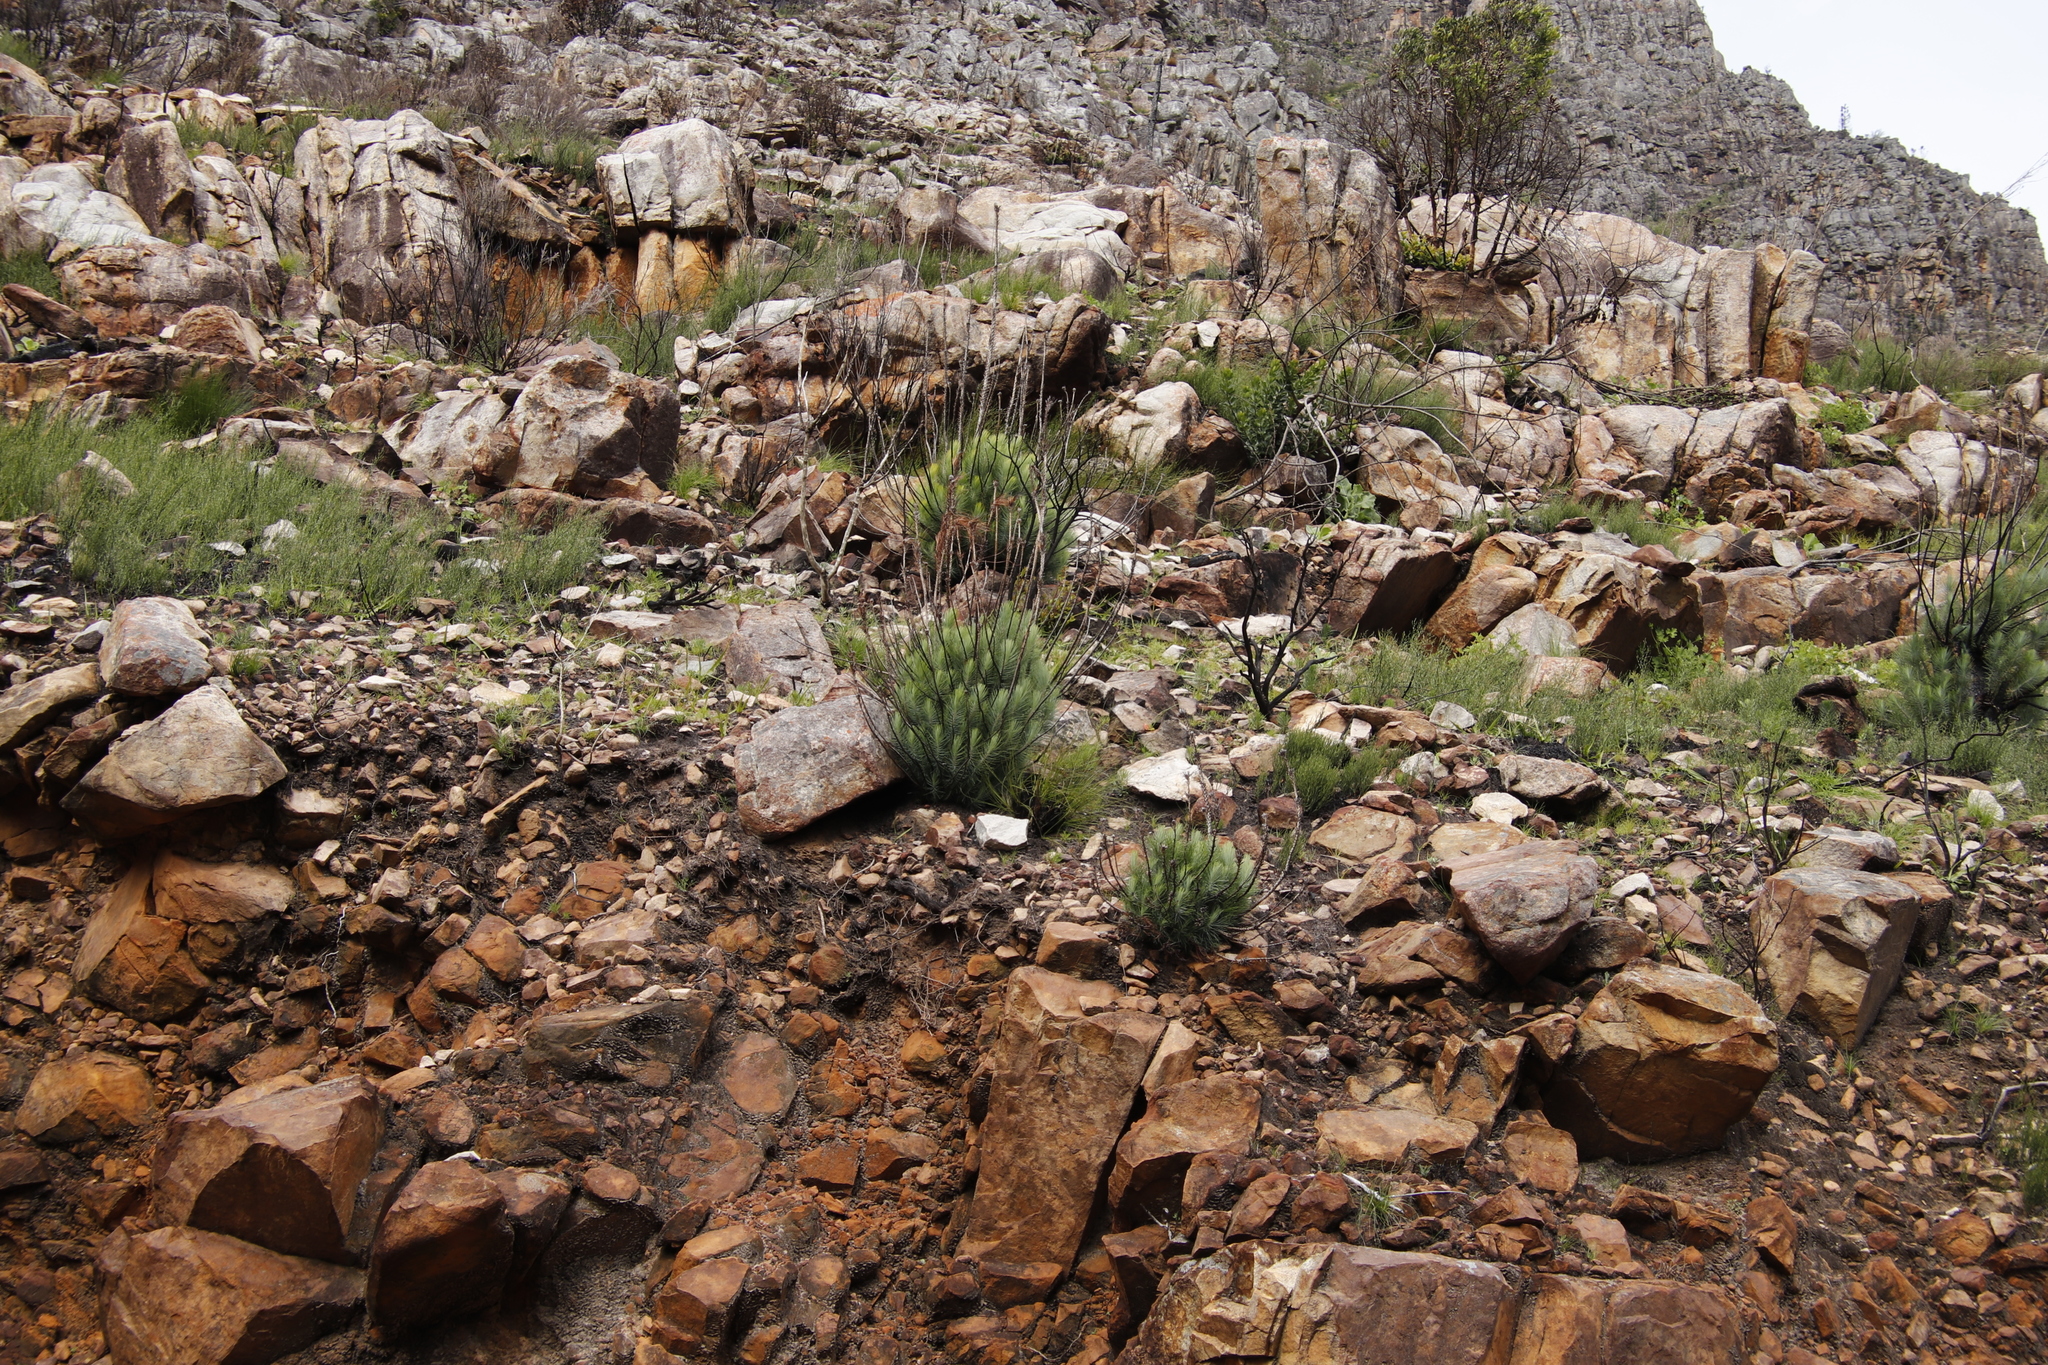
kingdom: Plantae
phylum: Tracheophyta
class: Pinopsida
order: Pinales
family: Pinaceae
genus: Pinus
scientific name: Pinus canariensis
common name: Canary islands pine
